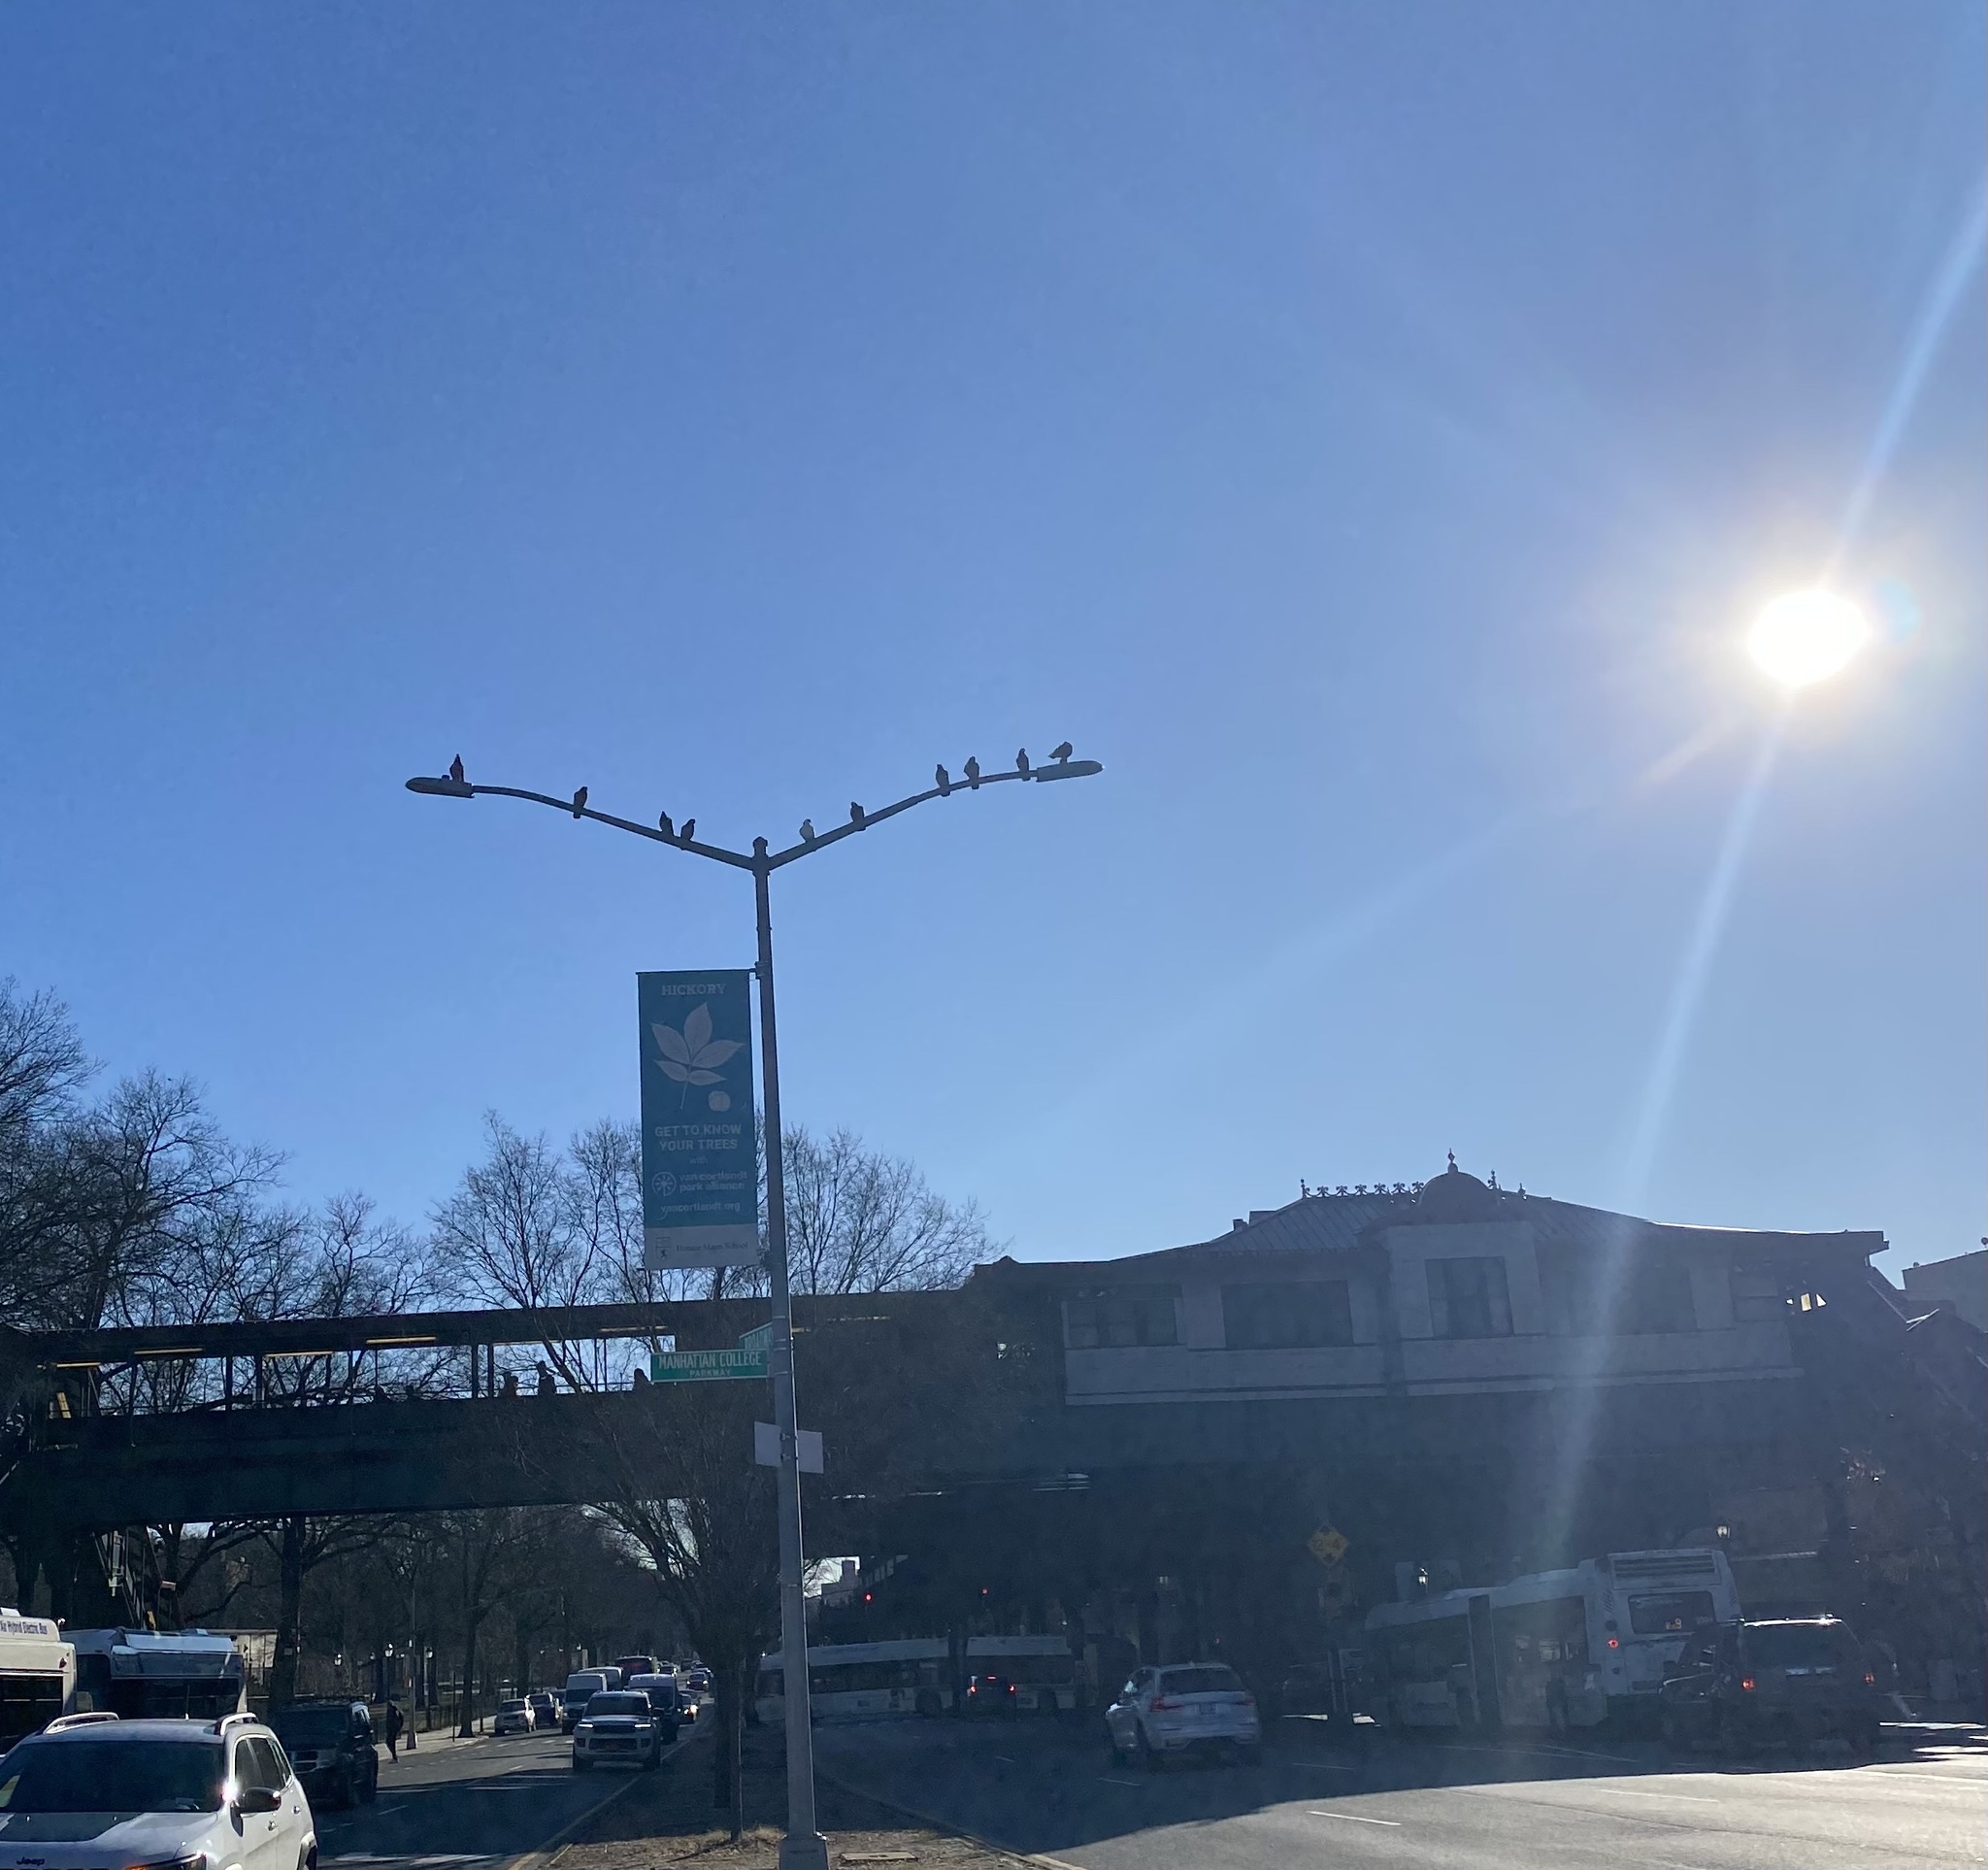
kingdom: Animalia
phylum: Chordata
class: Aves
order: Columbiformes
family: Columbidae
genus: Columba
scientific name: Columba livia
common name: Rock pigeon
